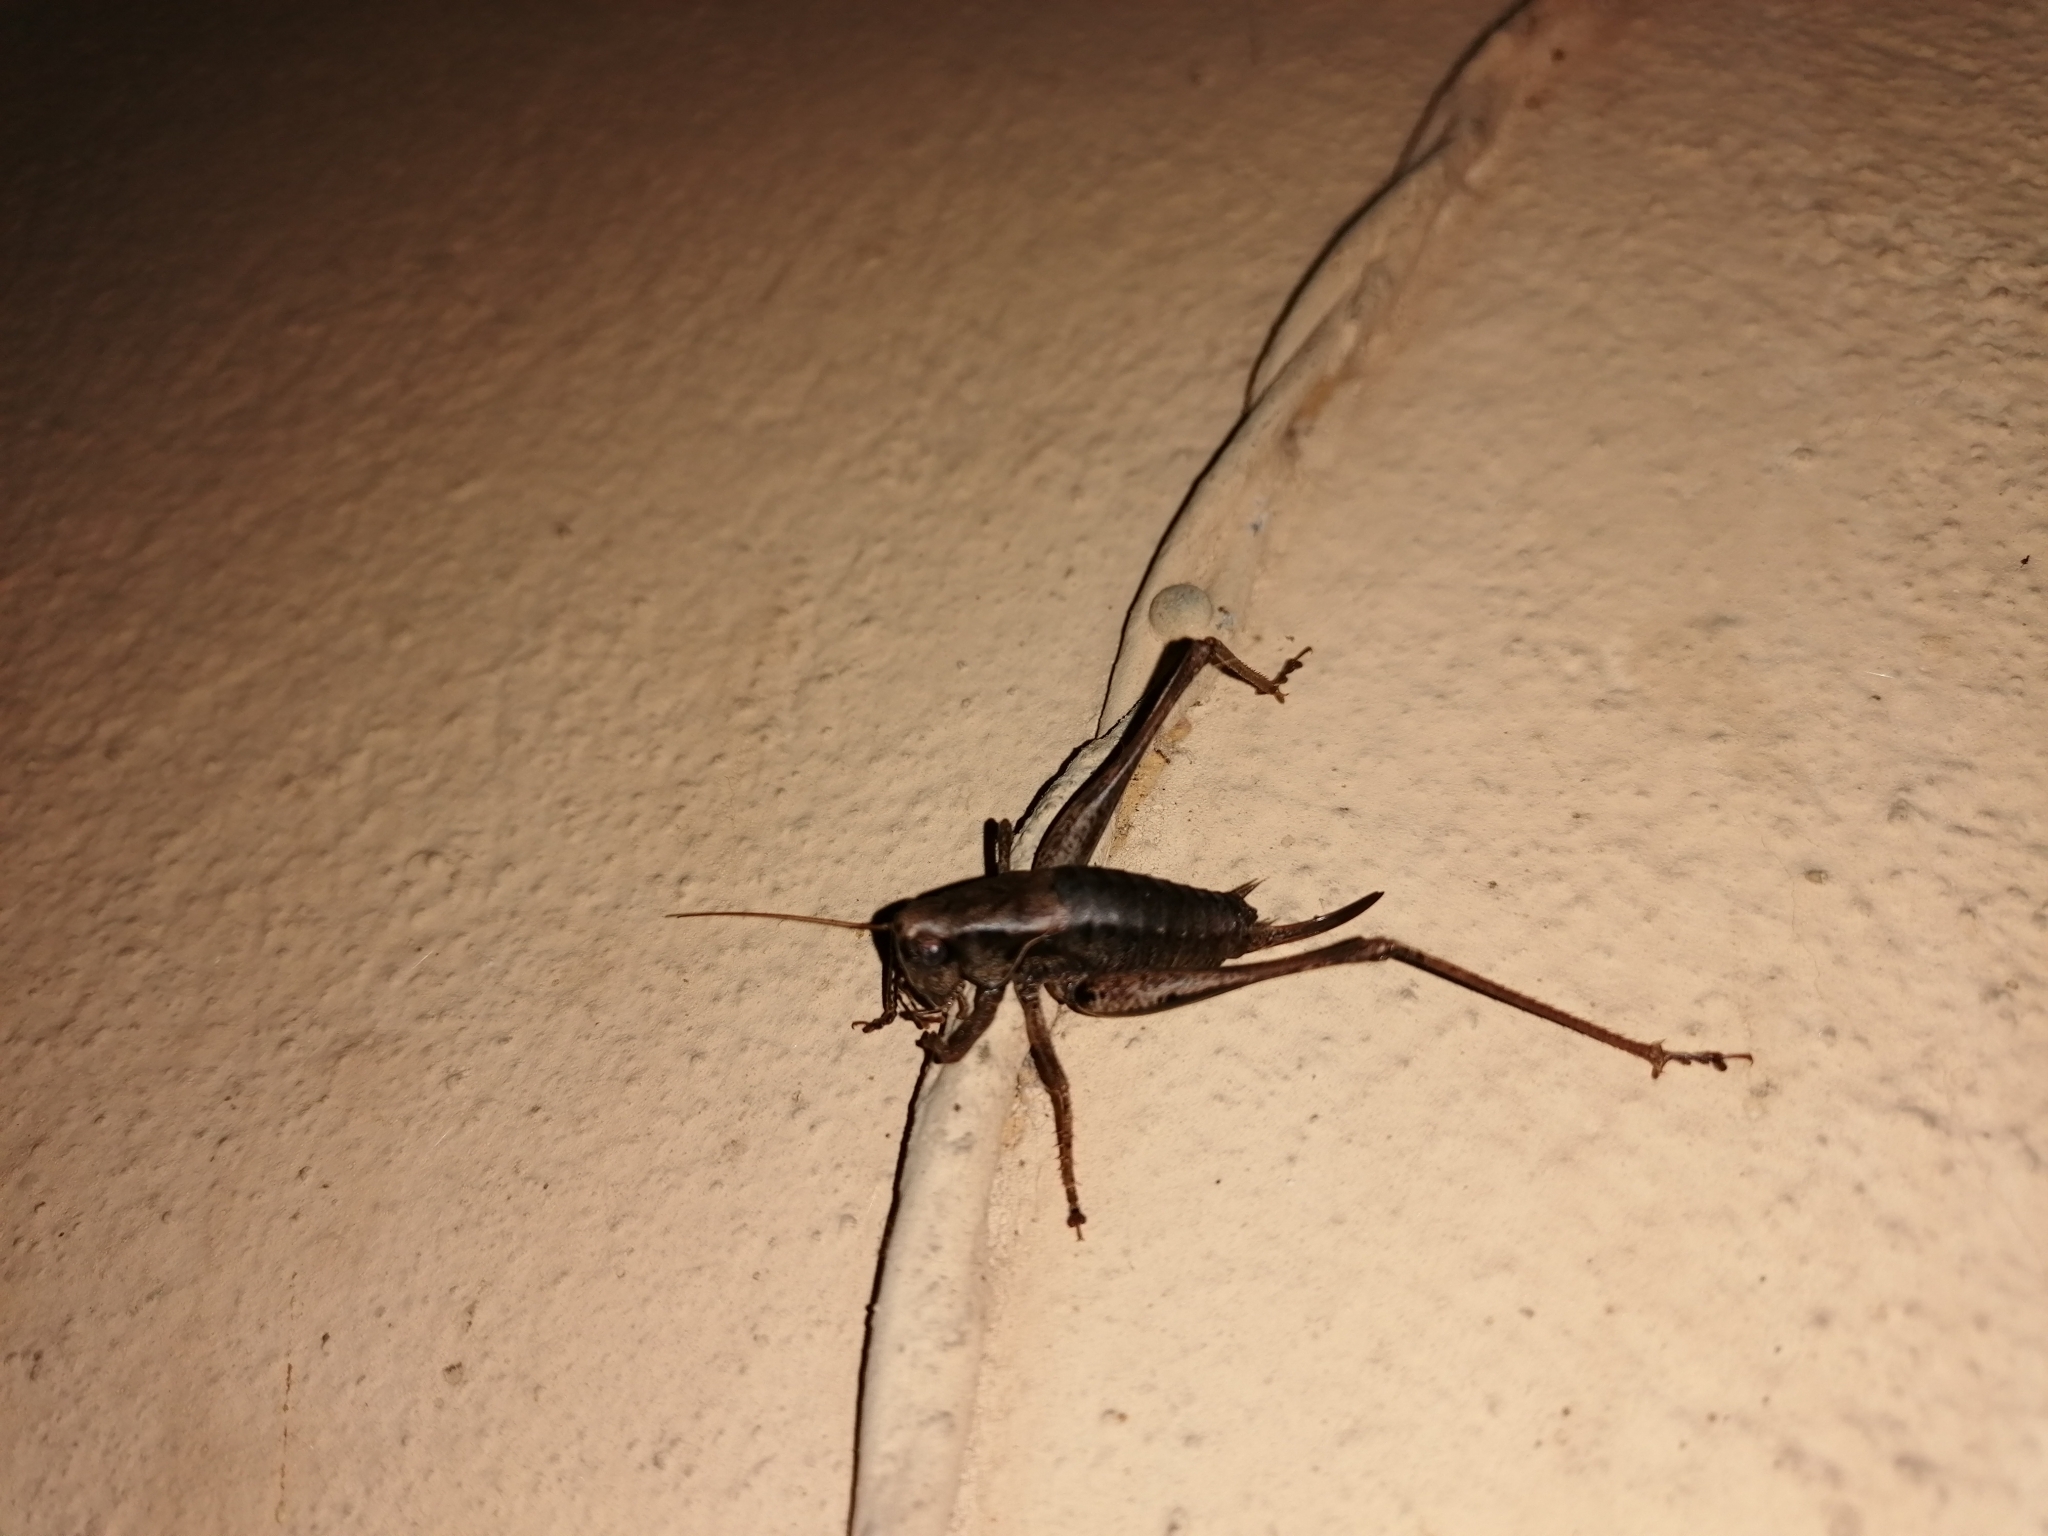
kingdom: Animalia
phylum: Arthropoda
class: Insecta
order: Orthoptera
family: Tettigoniidae
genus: Pholidoptera
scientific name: Pholidoptera griseoaptera
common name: Dark bush-cricket
